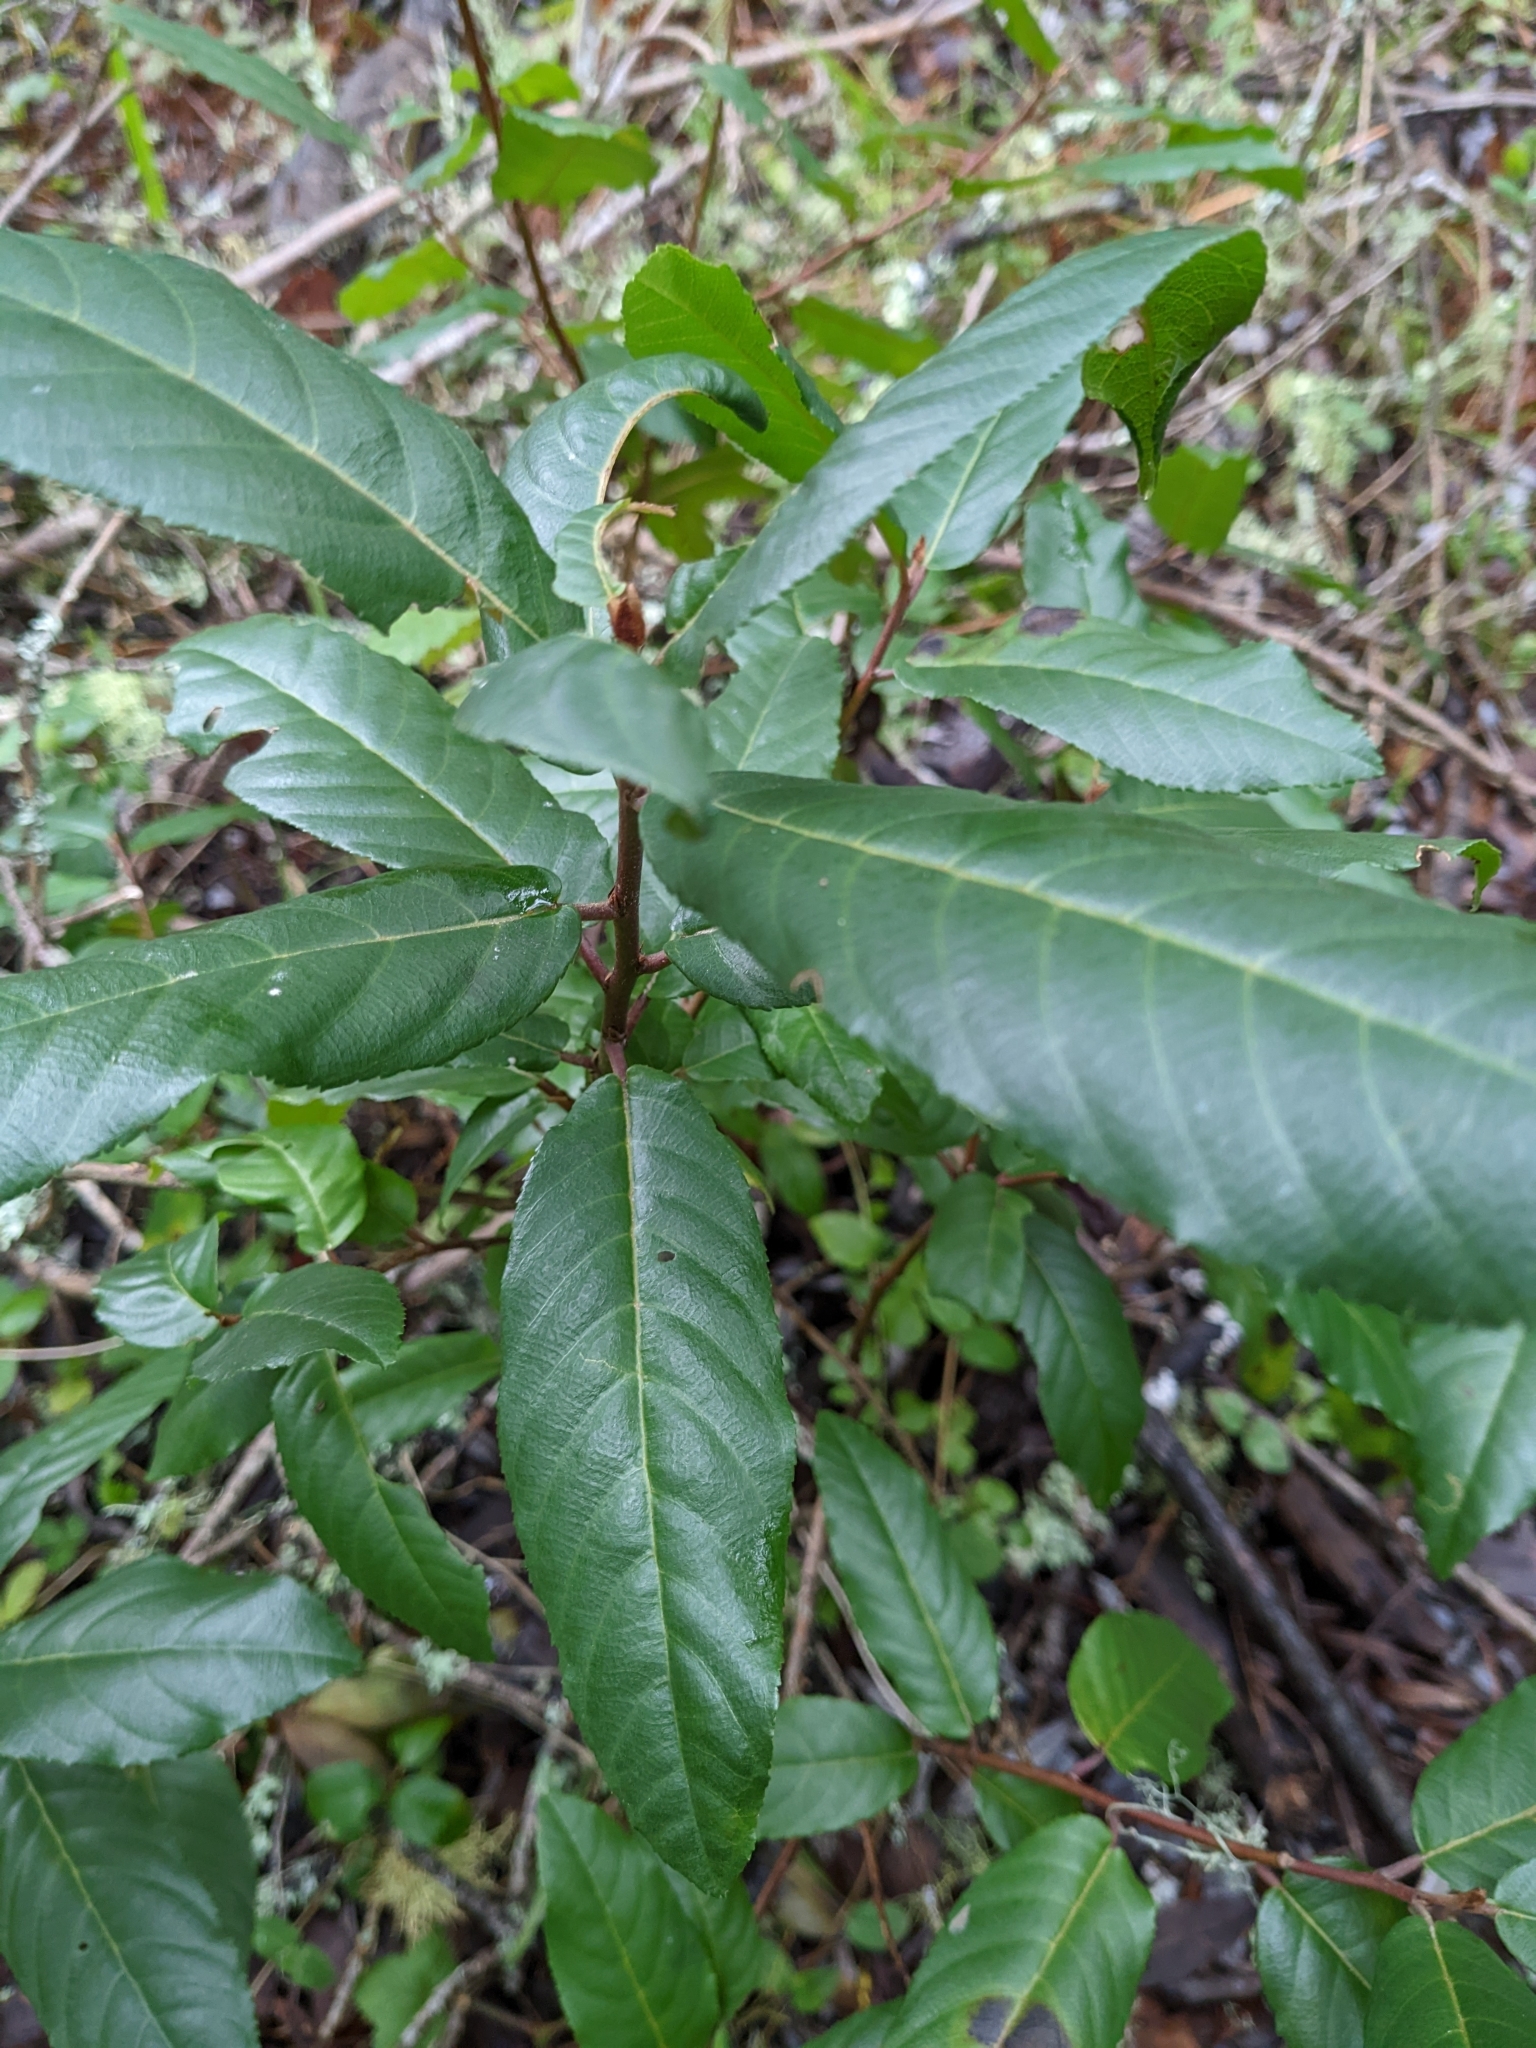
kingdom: Plantae
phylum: Tracheophyta
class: Magnoliopsida
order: Rosales
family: Rhamnaceae
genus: Frangula
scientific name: Frangula californica
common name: California buckthorn
